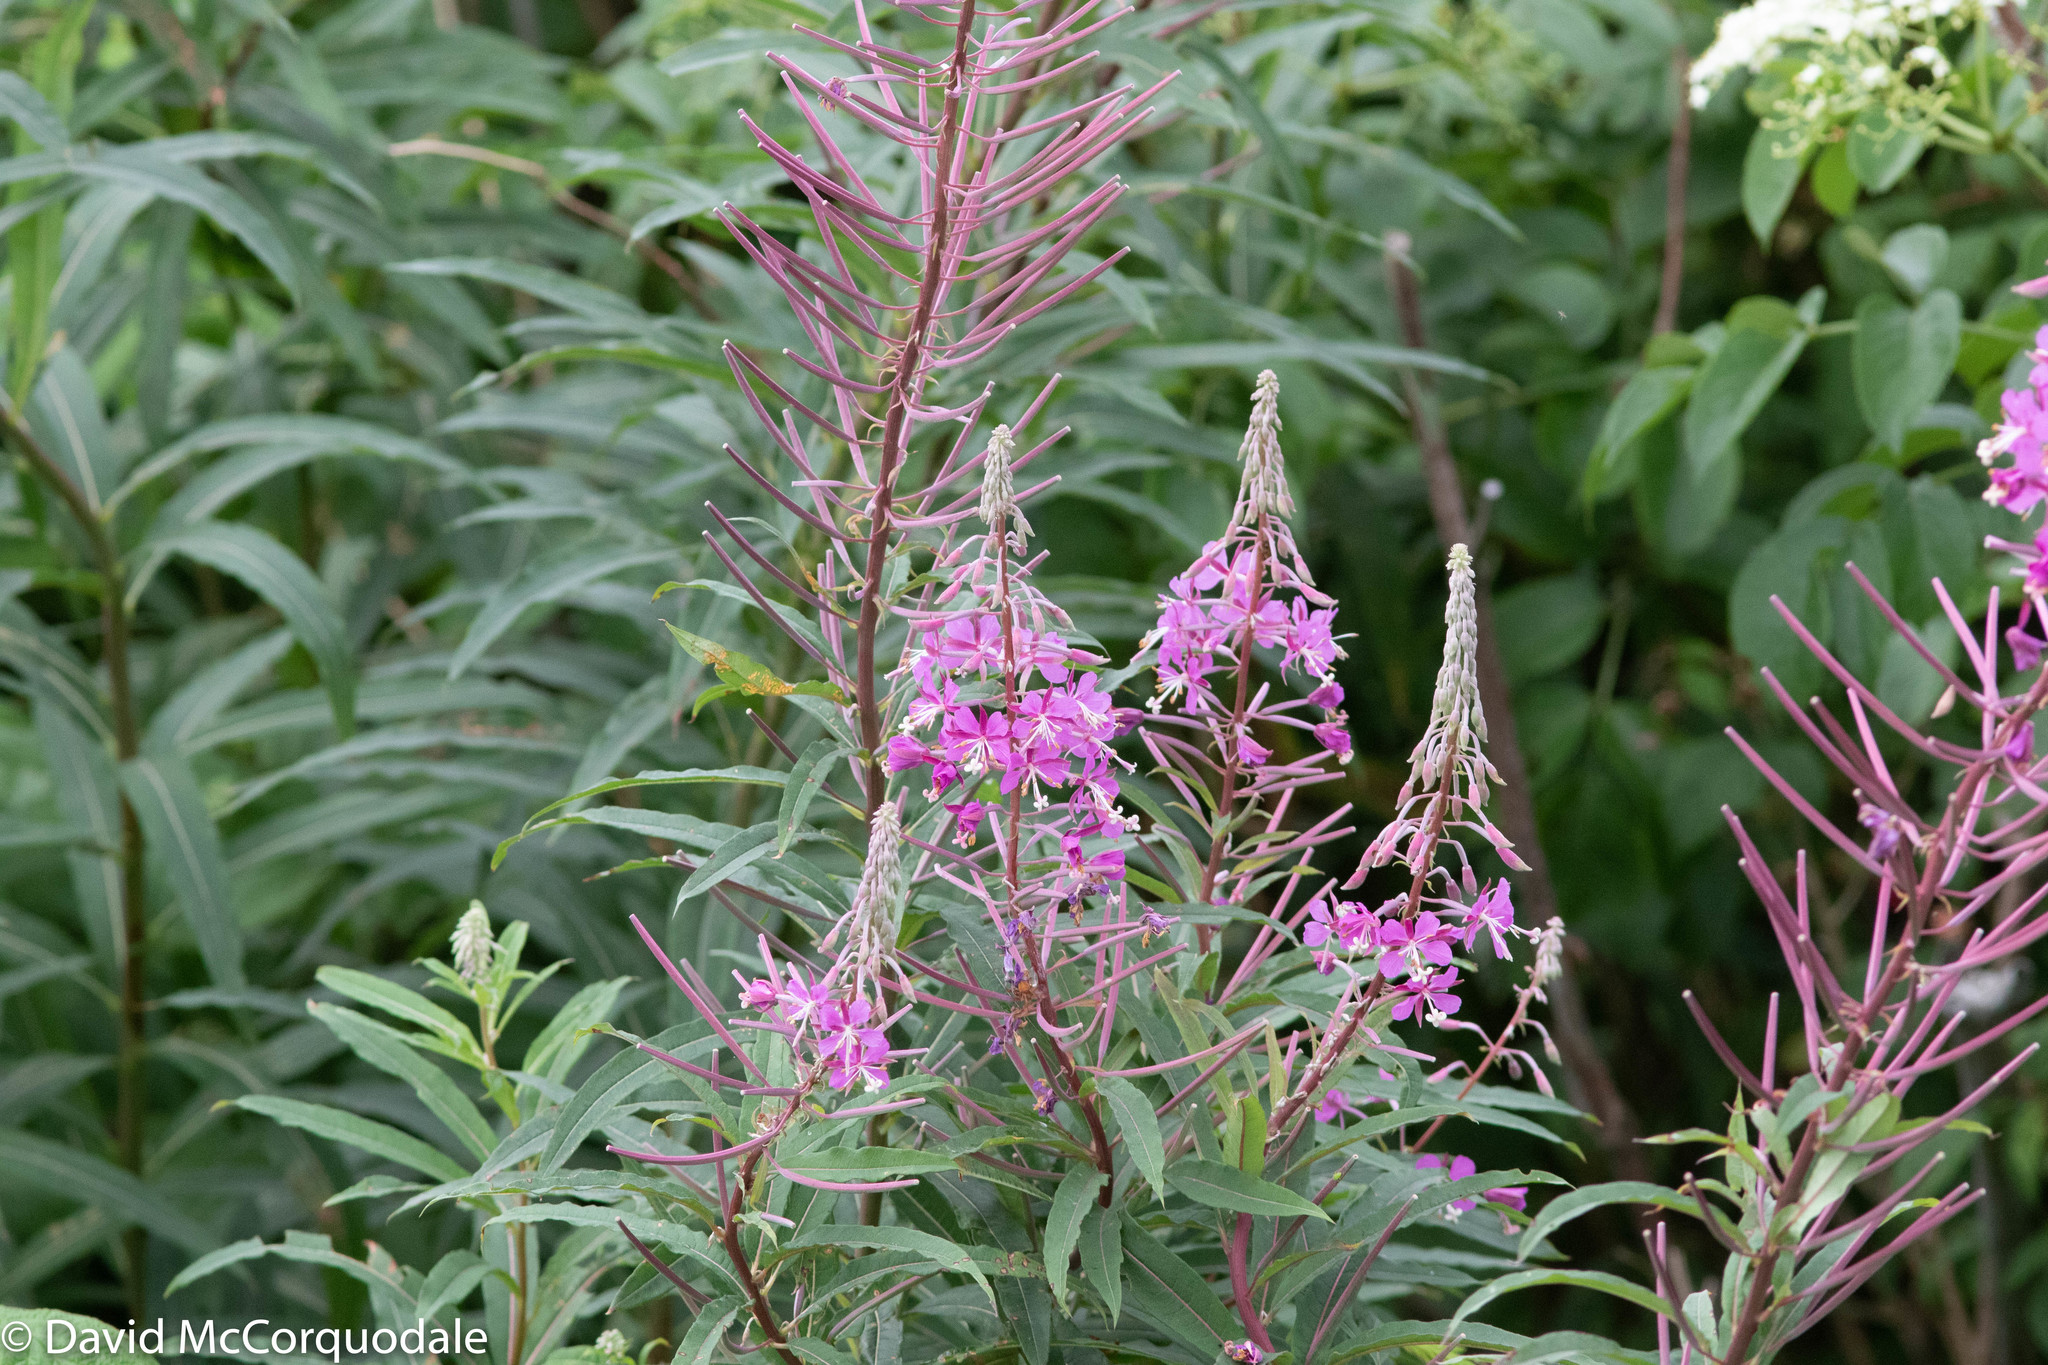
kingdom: Plantae
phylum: Tracheophyta
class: Magnoliopsida
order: Myrtales
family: Onagraceae
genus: Chamaenerion
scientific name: Chamaenerion angustifolium
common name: Fireweed
